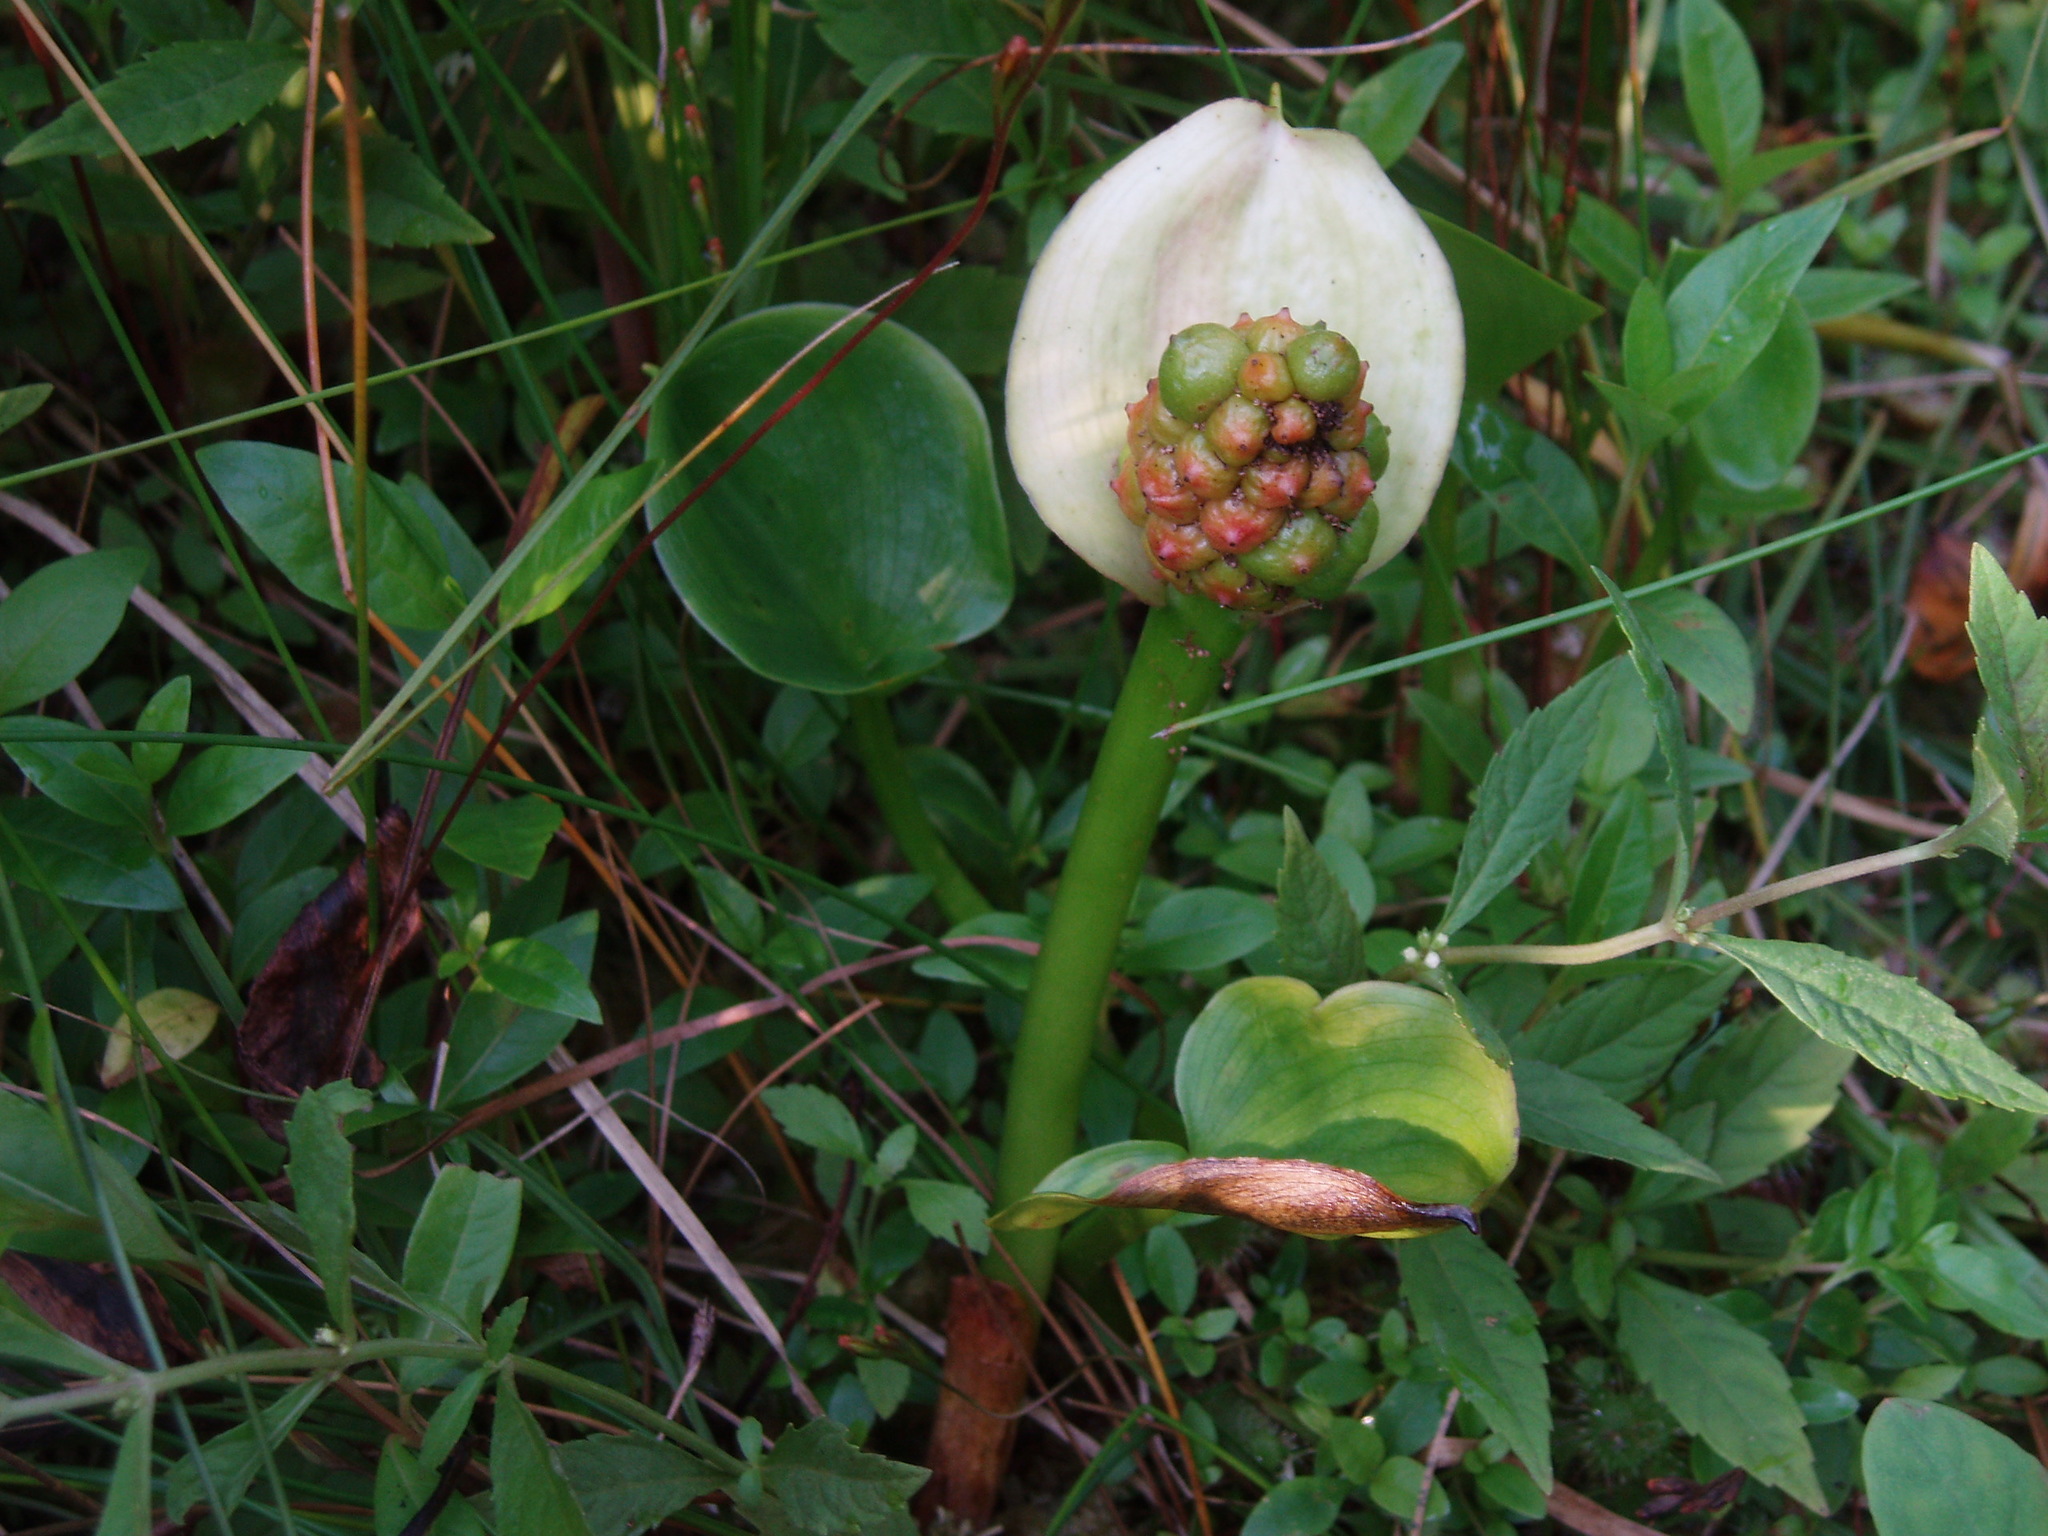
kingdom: Plantae
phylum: Tracheophyta
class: Liliopsida
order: Alismatales
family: Araceae
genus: Calla
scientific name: Calla palustris
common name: Bog arum
